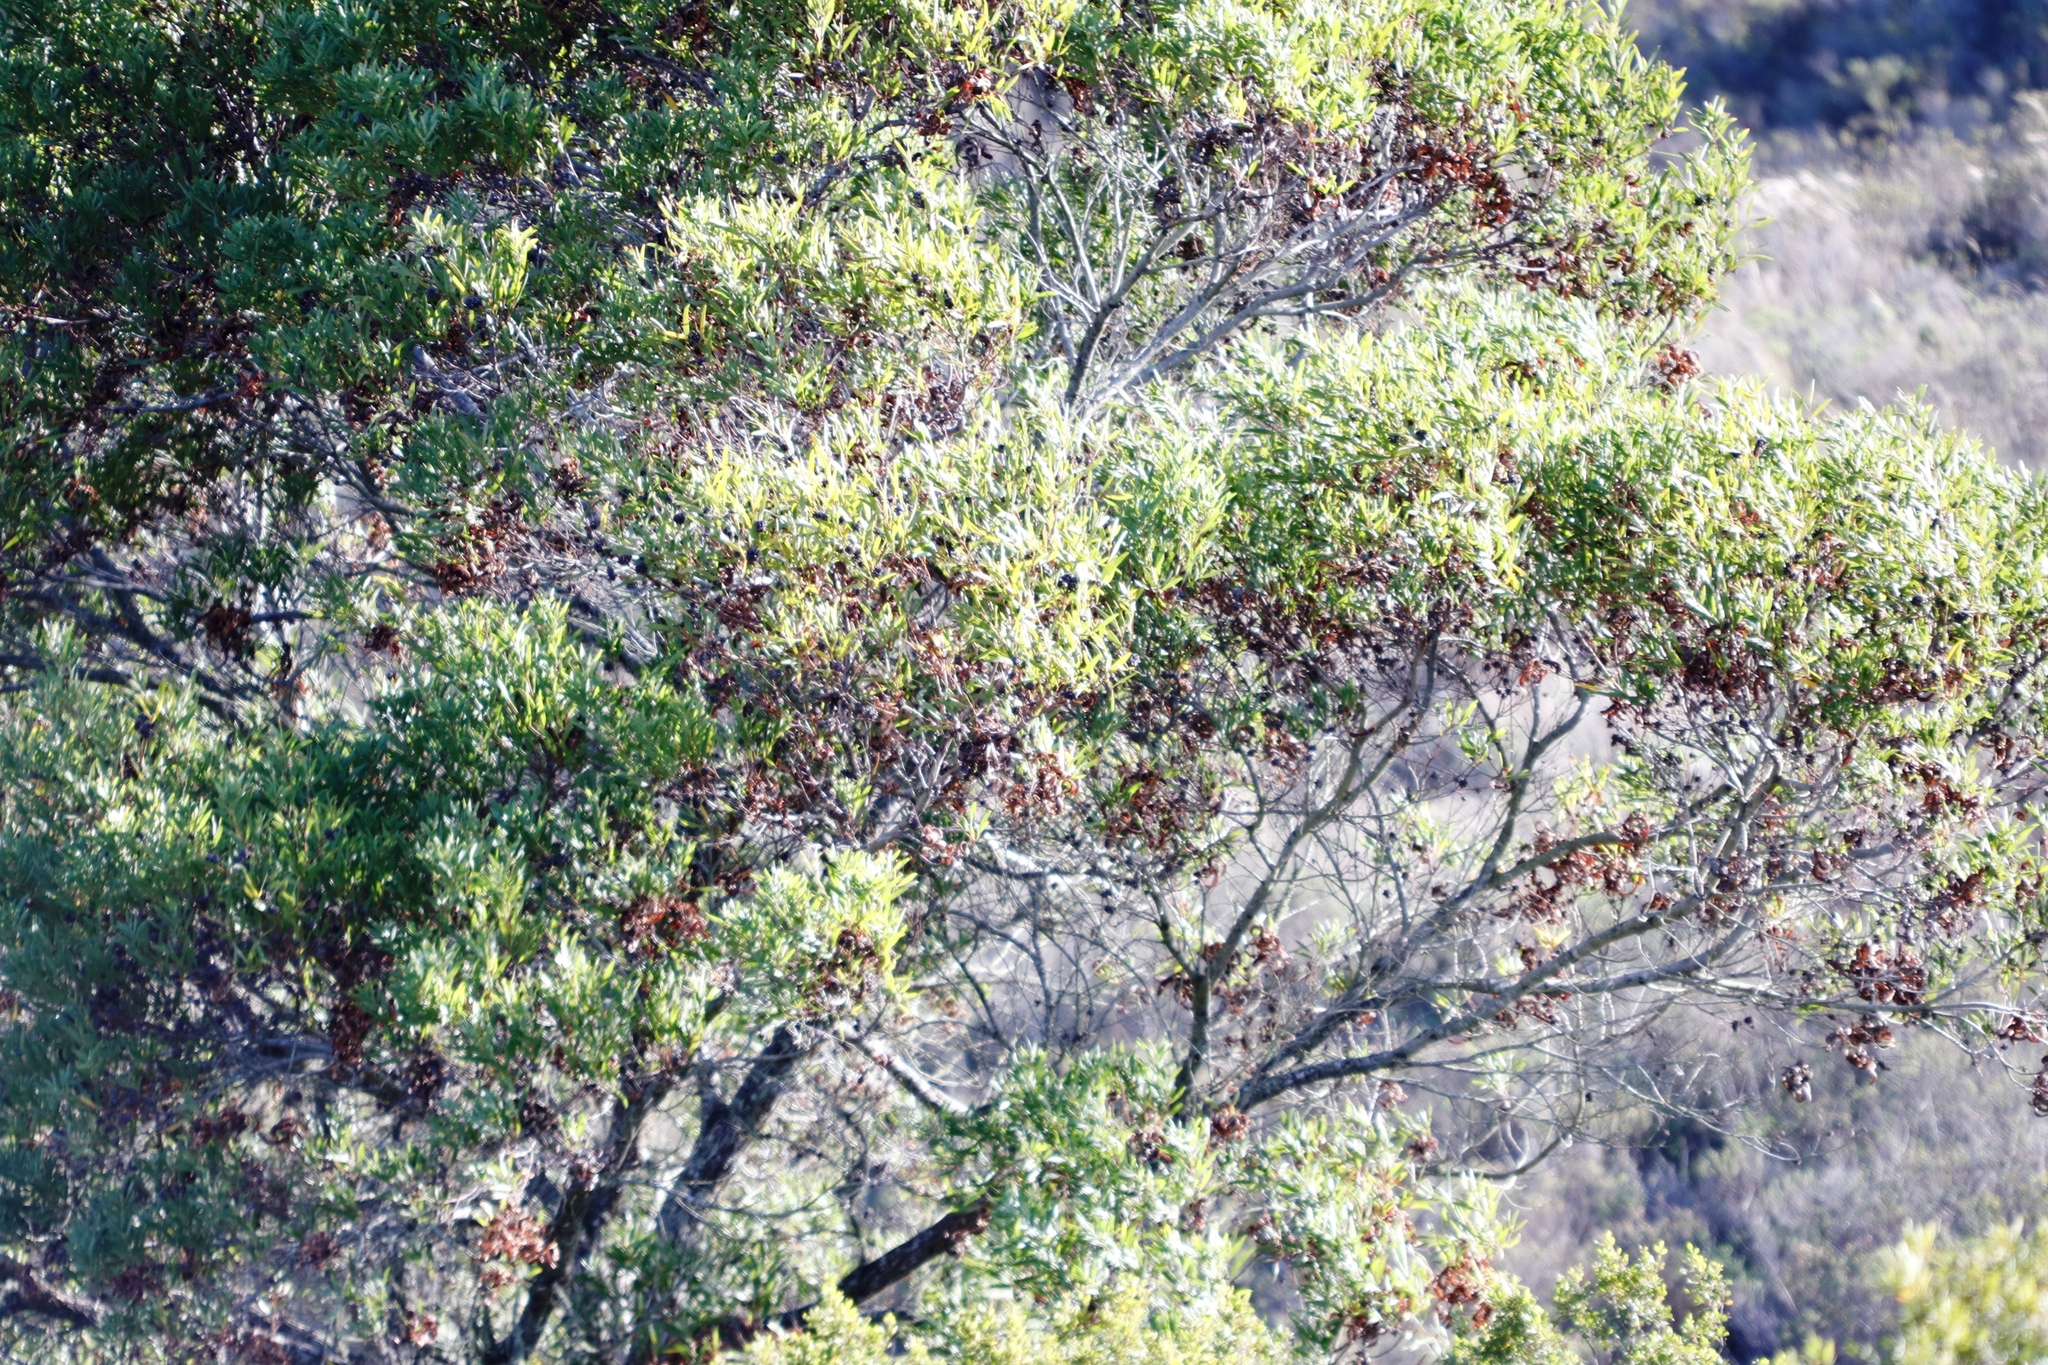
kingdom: Plantae
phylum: Tracheophyta
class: Magnoliopsida
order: Fabales
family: Fabaceae
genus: Acacia
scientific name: Acacia cyclops
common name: Coastal wattle
